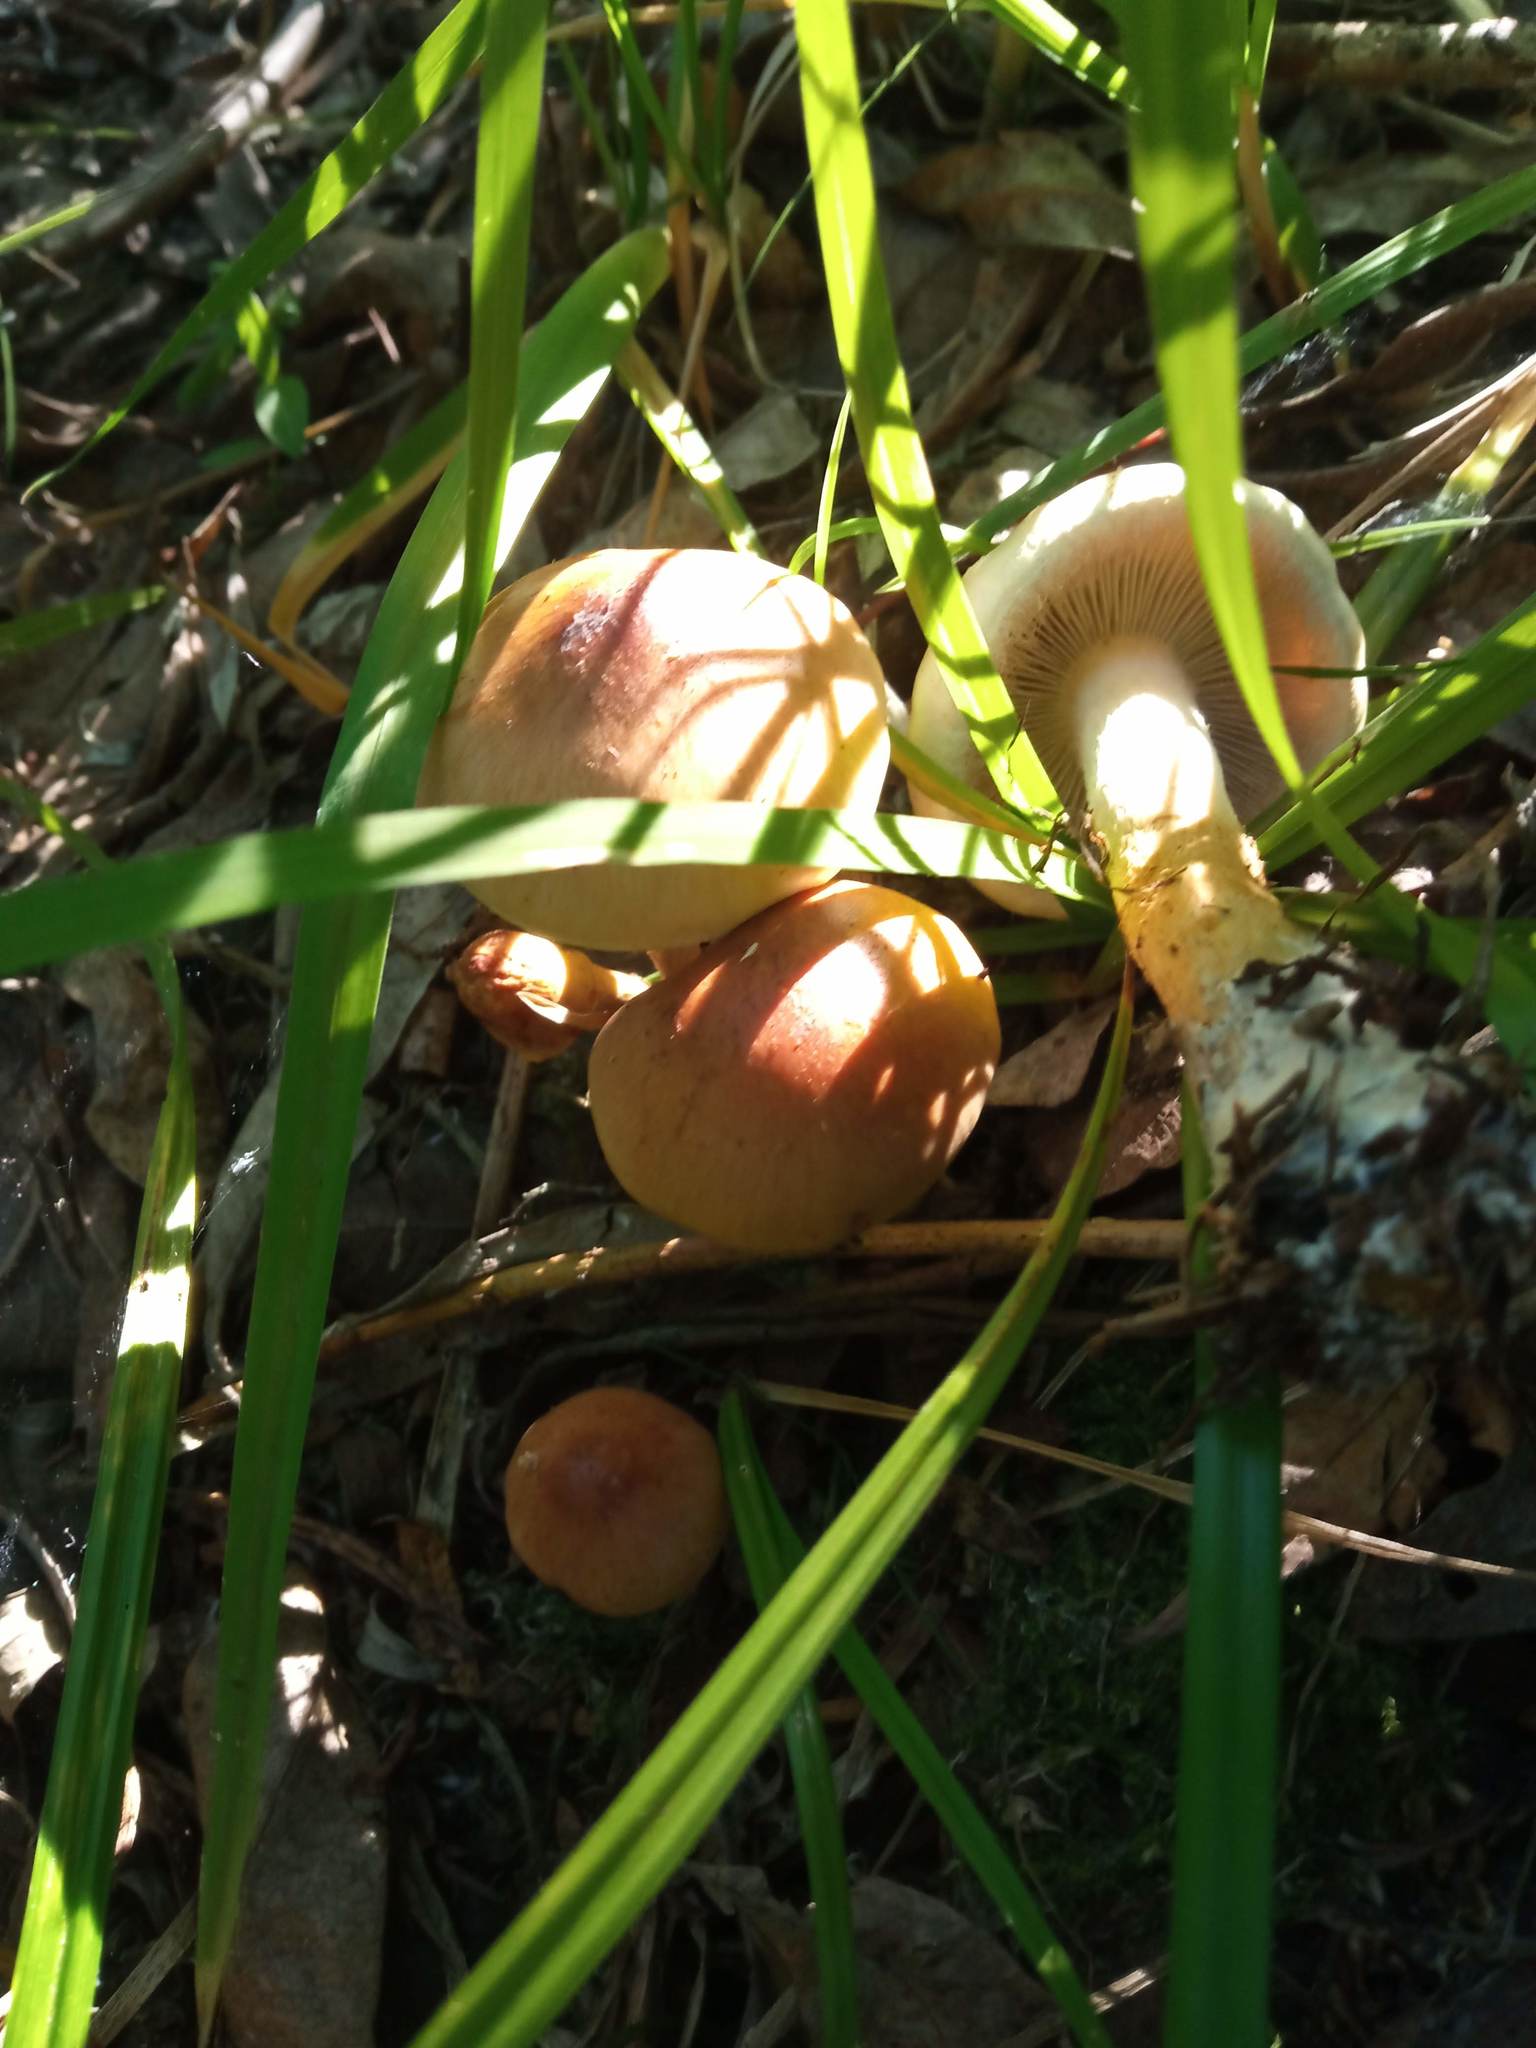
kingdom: Fungi
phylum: Basidiomycota
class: Agaricomycetes
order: Agaricales
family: Strophariaceae
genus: Hypholoma
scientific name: Hypholoma capnoides
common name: Conifer tuft
